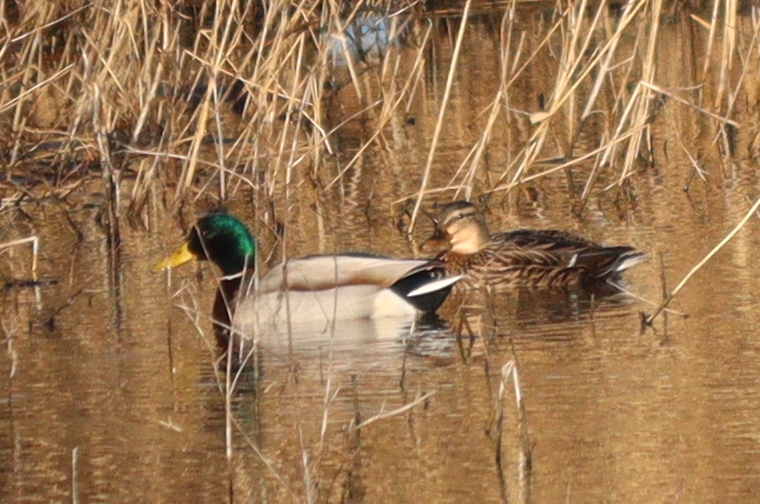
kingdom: Animalia
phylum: Chordata
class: Aves
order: Anseriformes
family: Anatidae
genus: Anas
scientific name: Anas platyrhynchos
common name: Mallard
